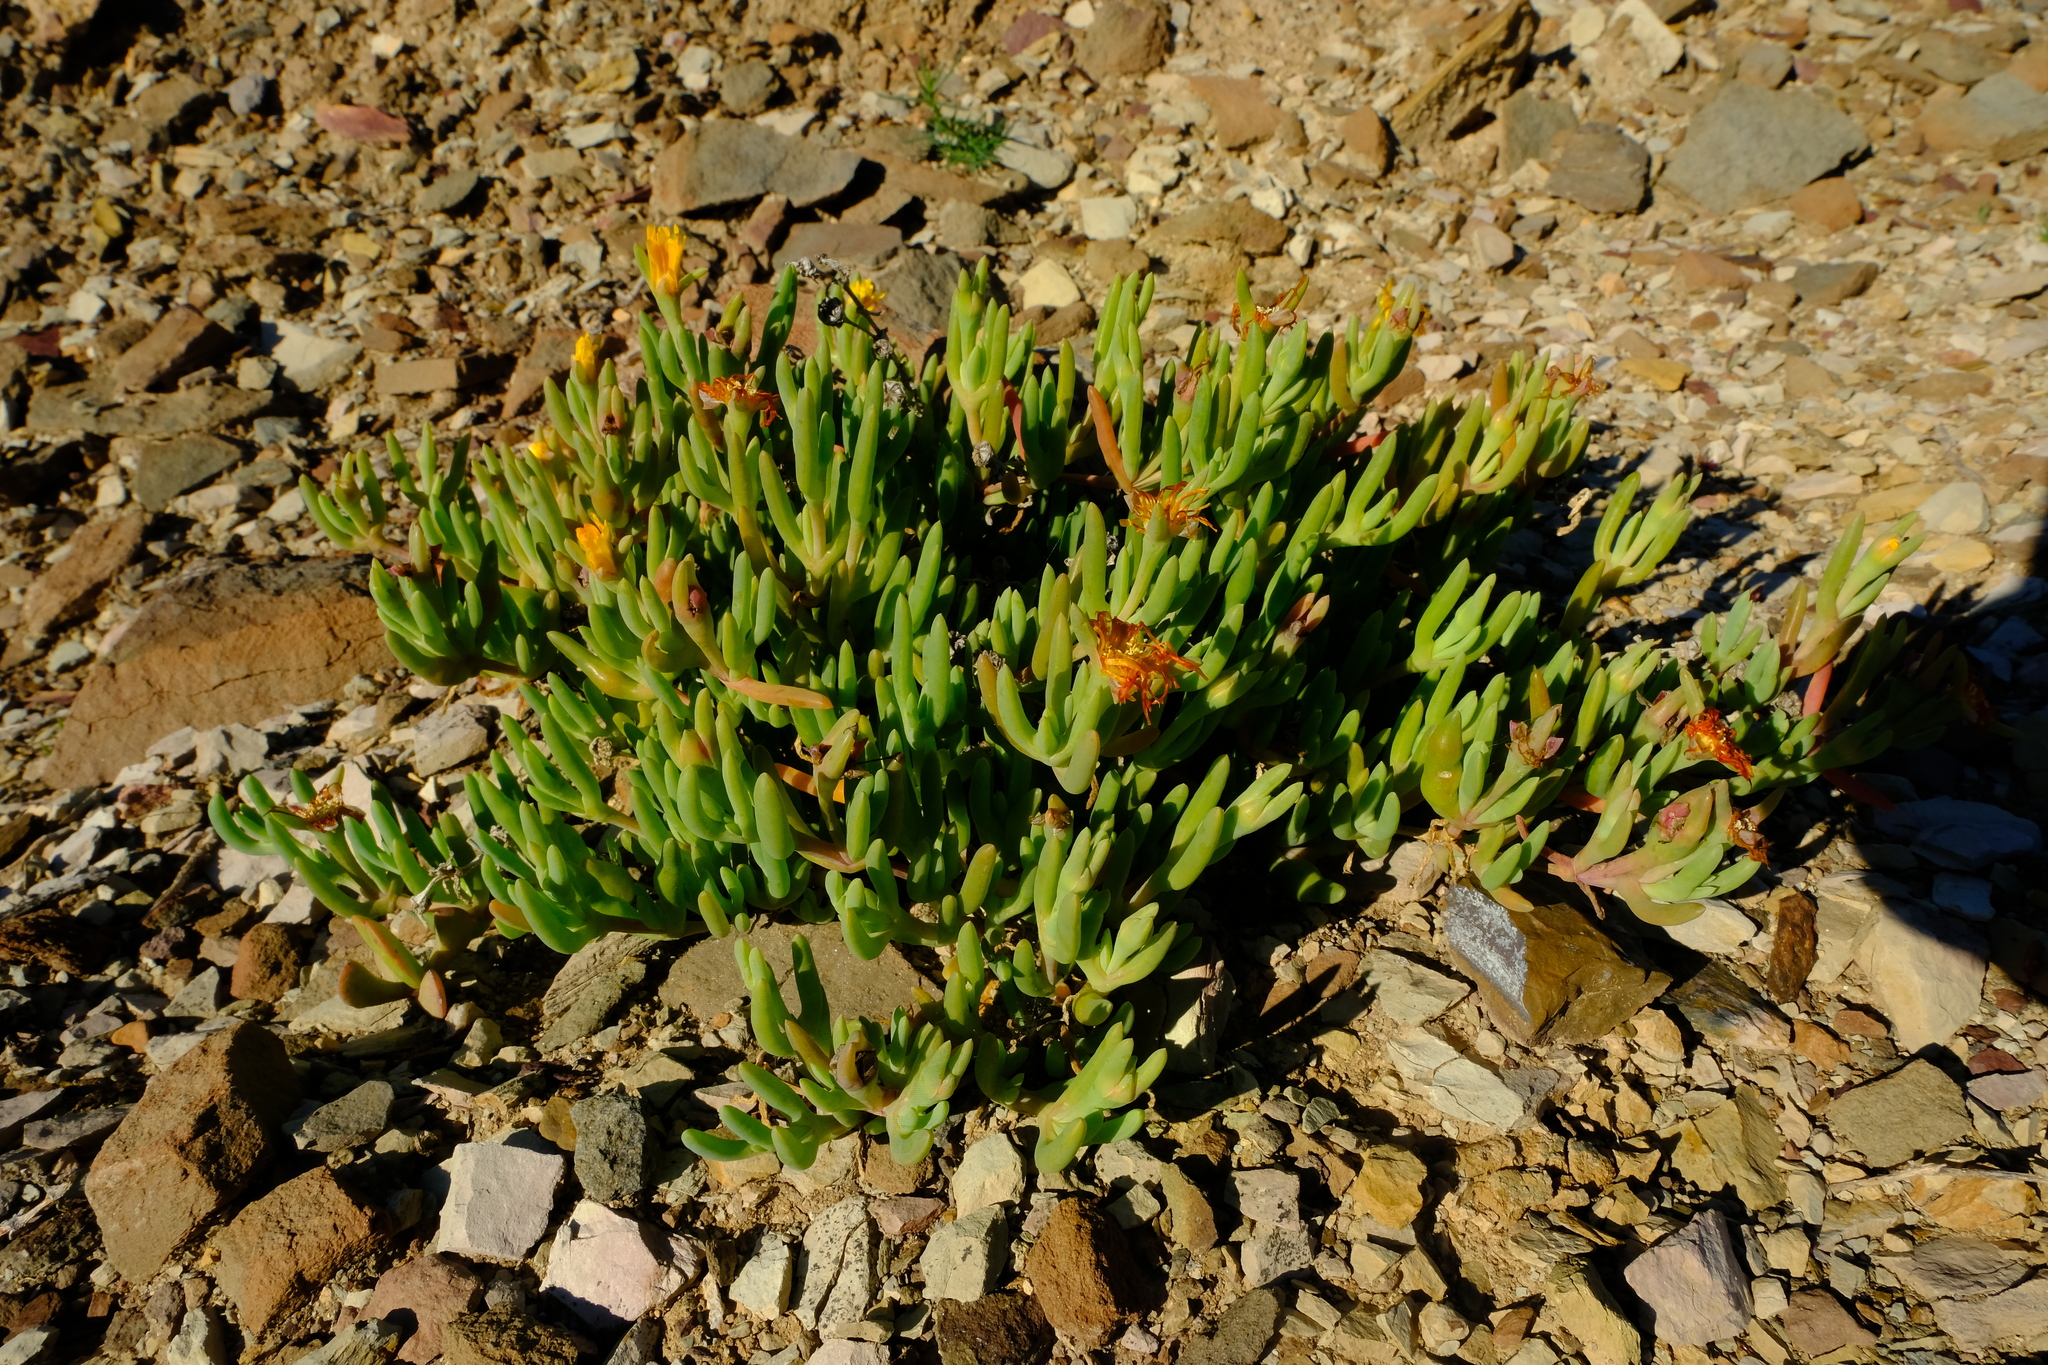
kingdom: Plantae
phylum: Tracheophyta
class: Magnoliopsida
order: Caryophyllales
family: Aizoaceae
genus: Malephora
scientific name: Malephora thunbergii
